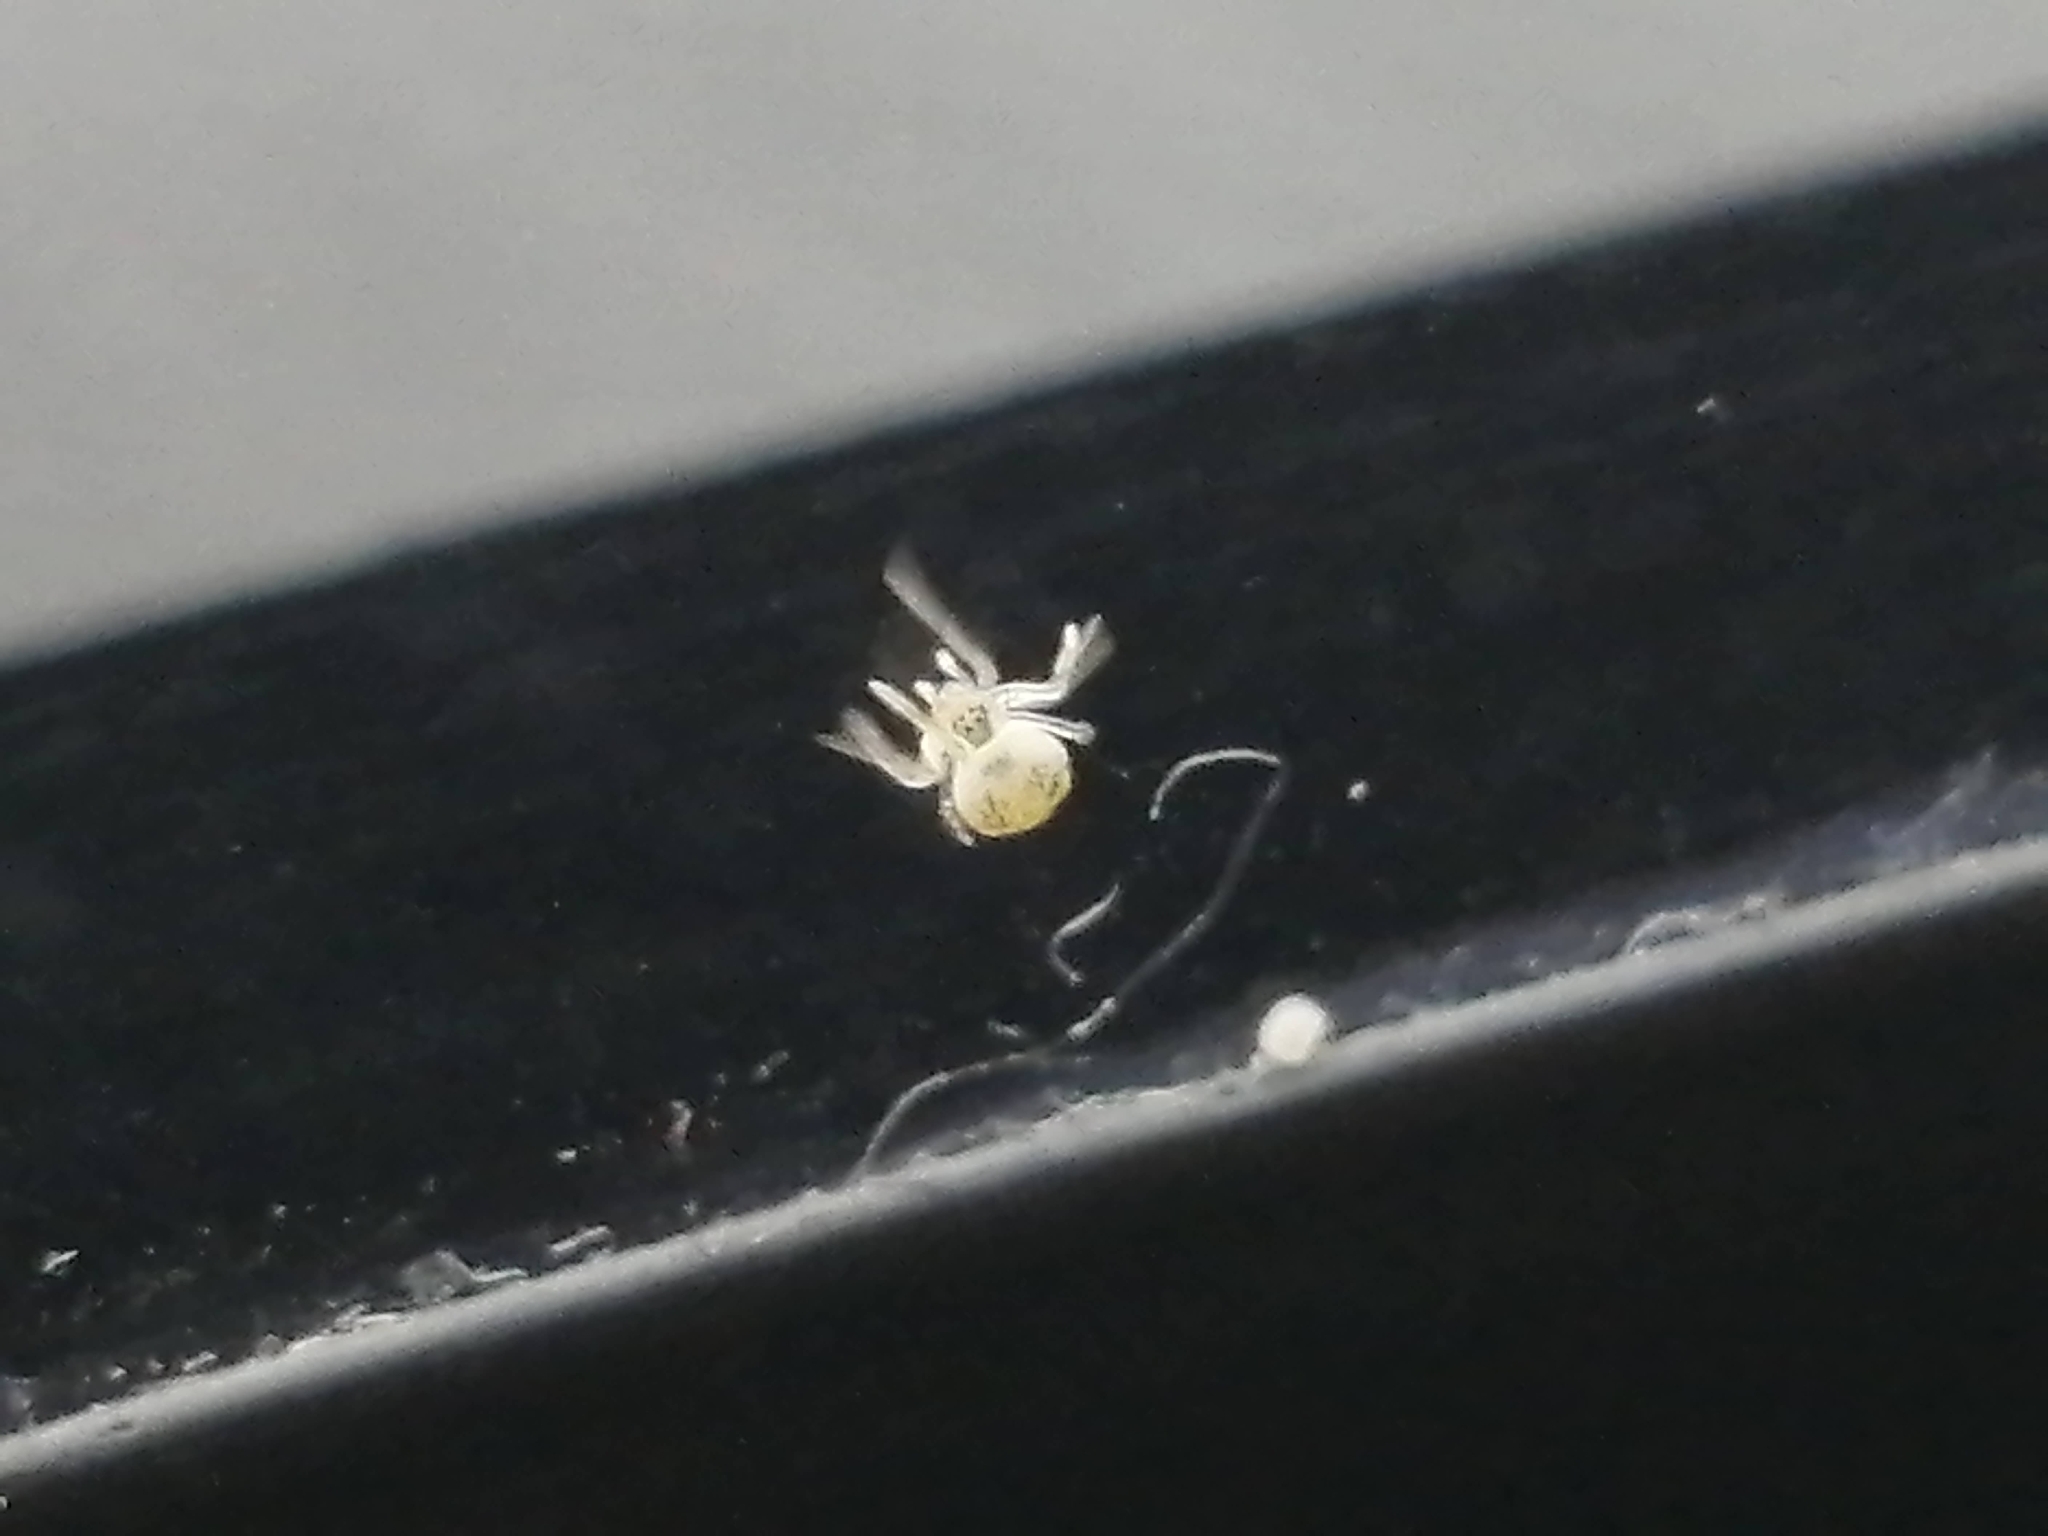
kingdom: Animalia
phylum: Arthropoda
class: Arachnida
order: Araneae
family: Theridiidae
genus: Paidiscura
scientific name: Paidiscura pallens
